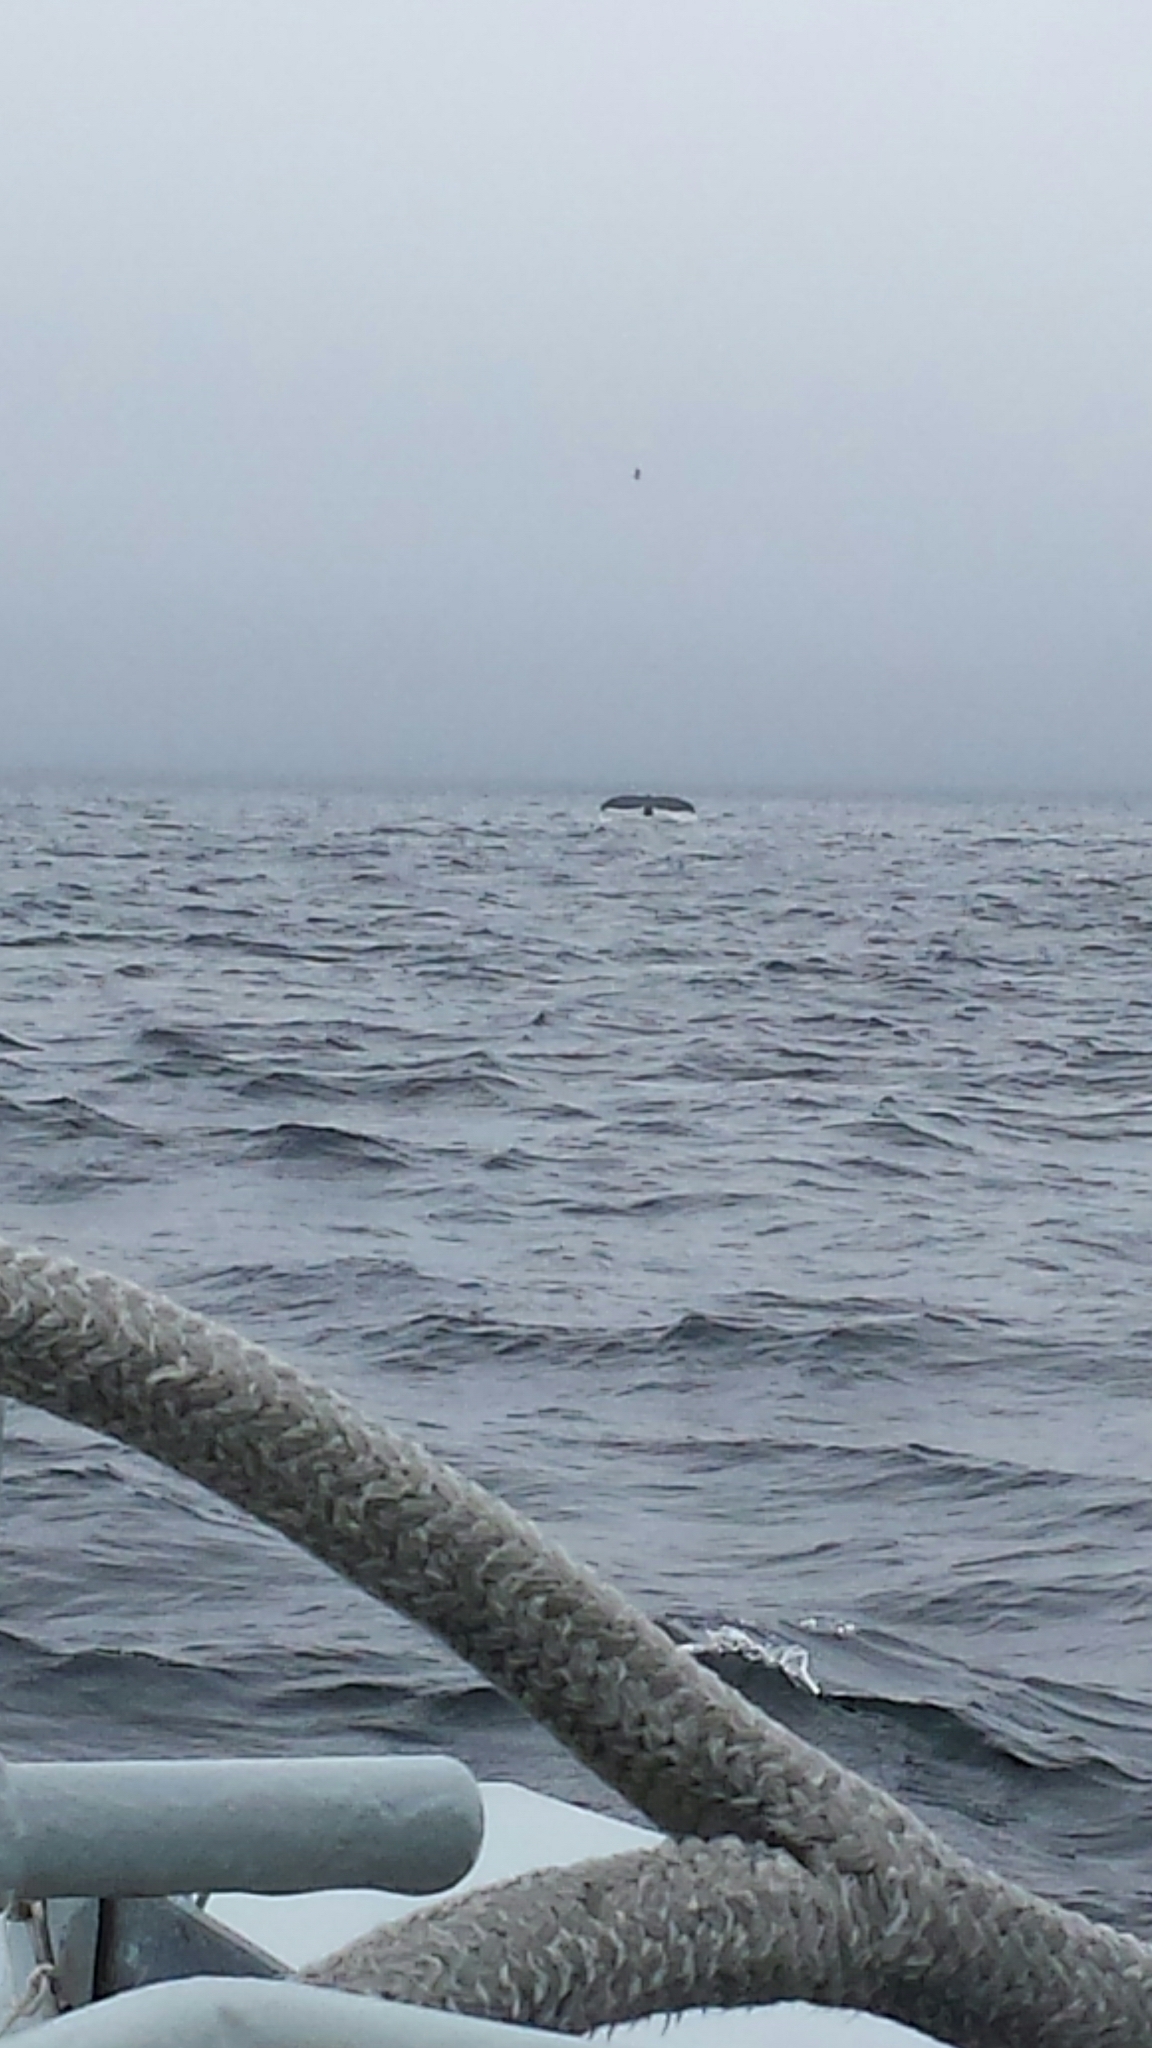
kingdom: Animalia
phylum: Chordata
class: Mammalia
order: Cetacea
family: Balaenopteridae
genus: Megaptera
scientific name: Megaptera novaeangliae
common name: Humpback whale
